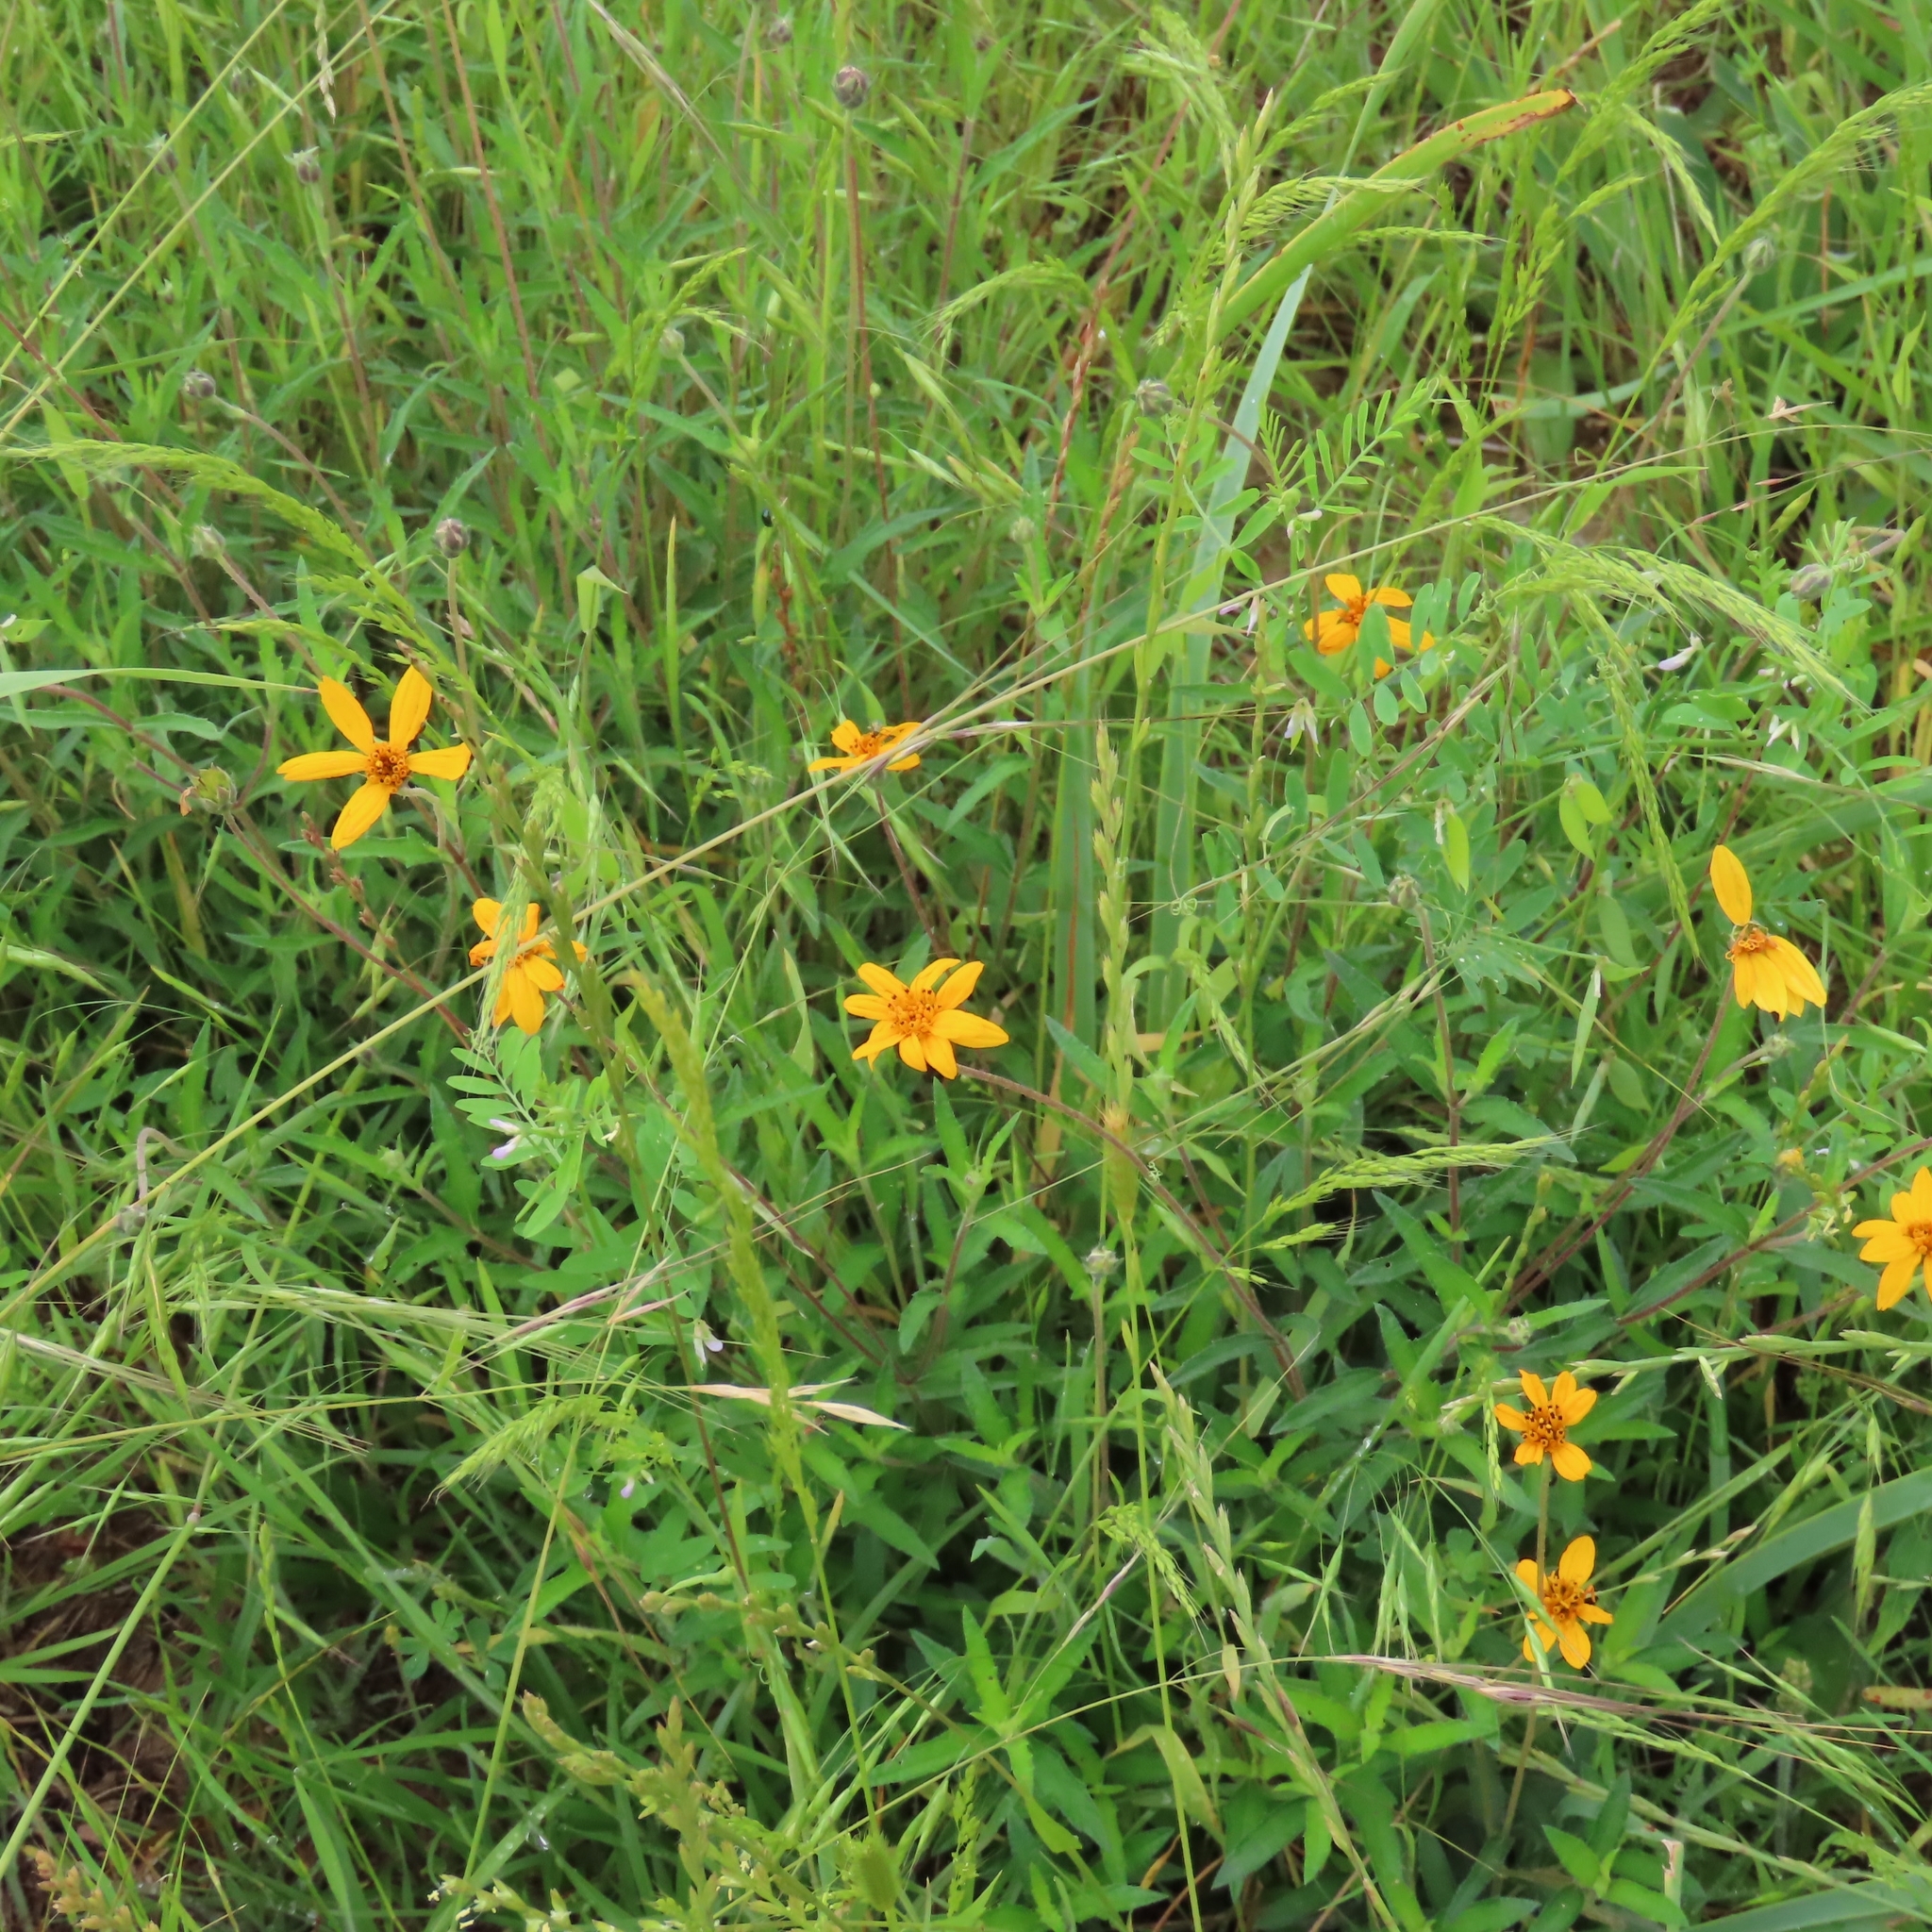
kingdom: Plantae
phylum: Tracheophyta
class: Magnoliopsida
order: Asterales
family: Asteraceae
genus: Wedelia
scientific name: Wedelia acapulcensis
